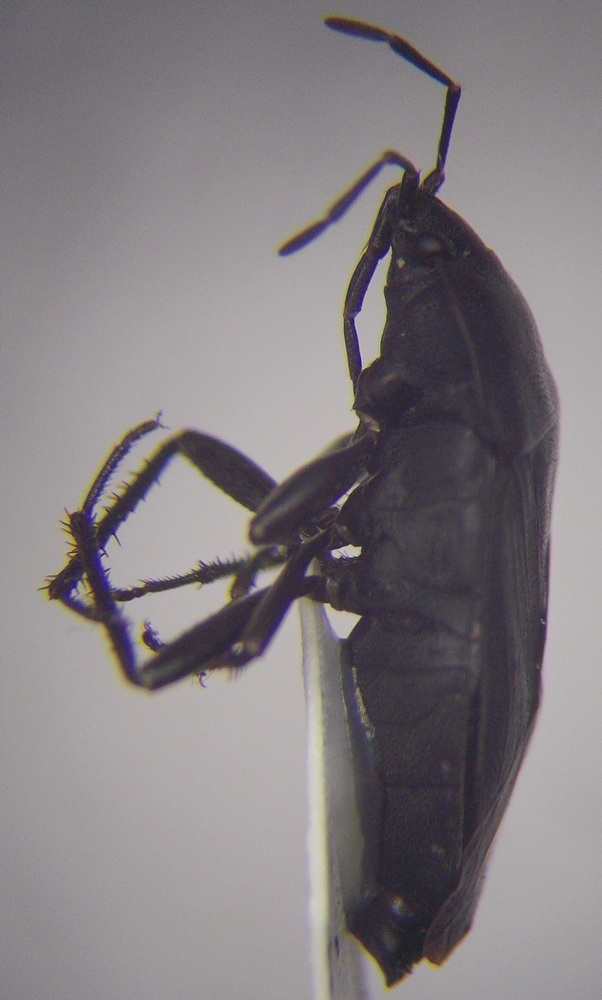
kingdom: Animalia
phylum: Arthropoda
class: Insecta
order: Hemiptera
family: Rhyparochromidae
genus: Aellopus
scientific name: Aellopus atratus
